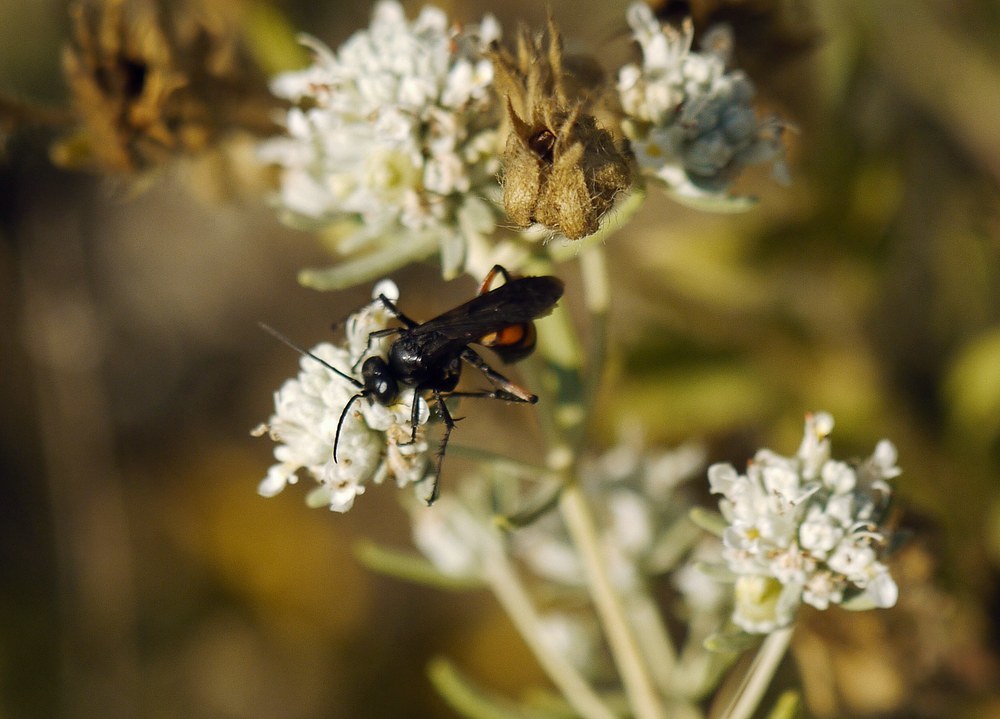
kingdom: Animalia
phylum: Arthropoda
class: Insecta
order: Hymenoptera
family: Pompilidae
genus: Anoplius
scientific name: Anoplius viaticus
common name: Black banded spider wasp
